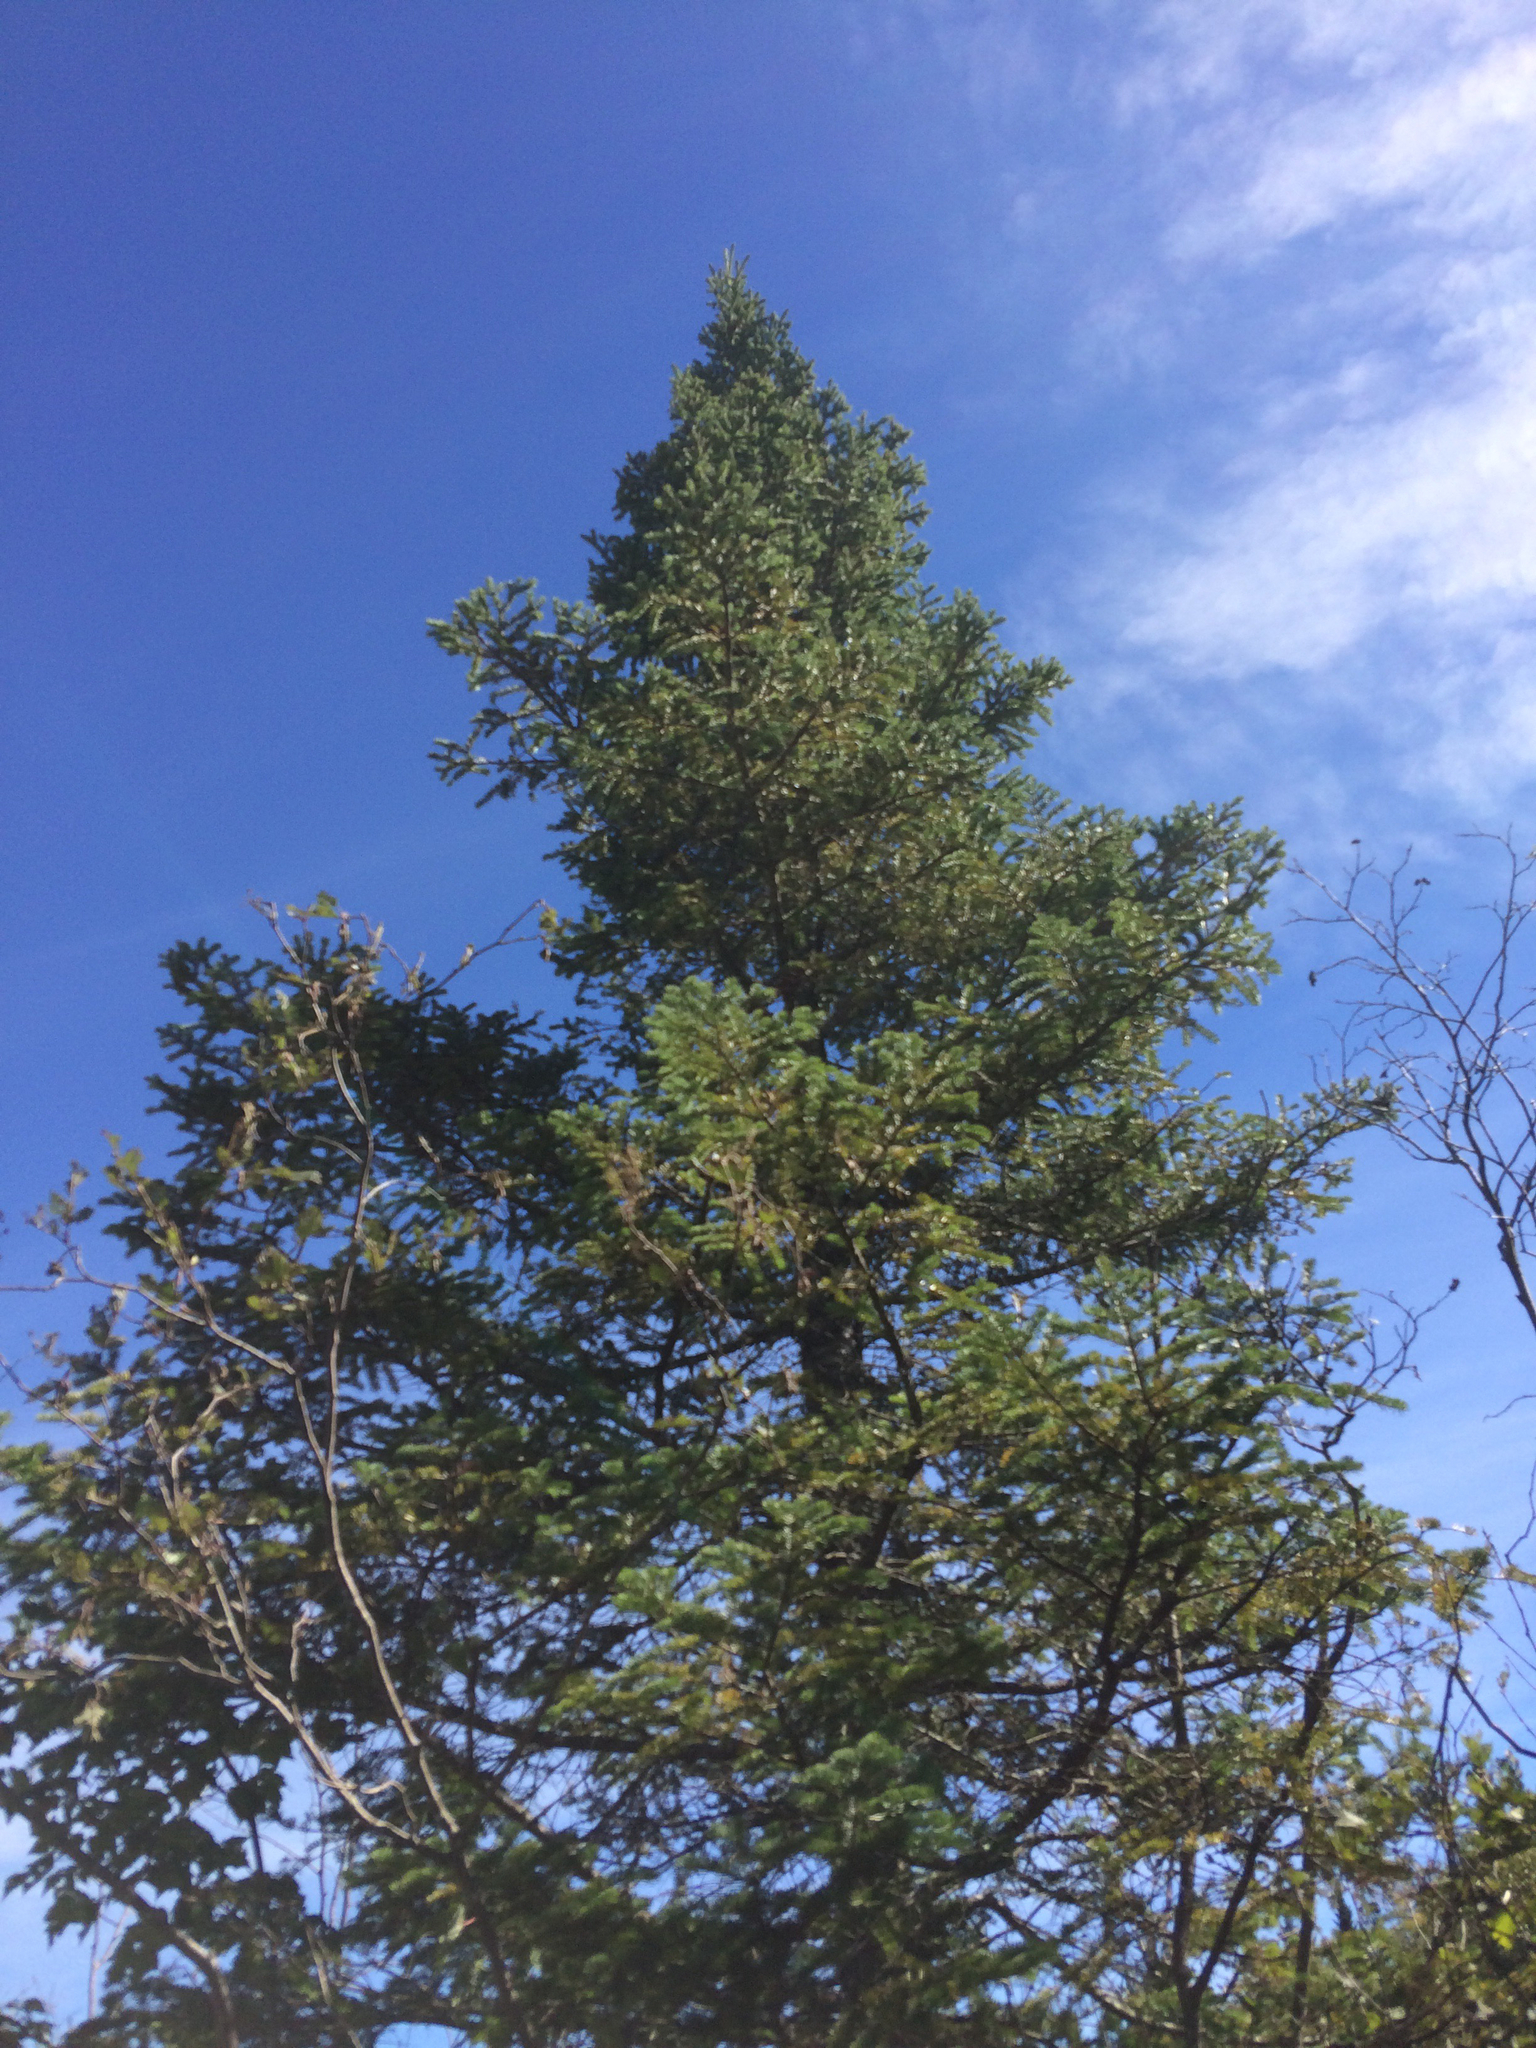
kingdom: Plantae
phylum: Tracheophyta
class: Pinopsida
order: Pinales
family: Pinaceae
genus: Abies
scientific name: Abies balsamea
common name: Balsam fir
